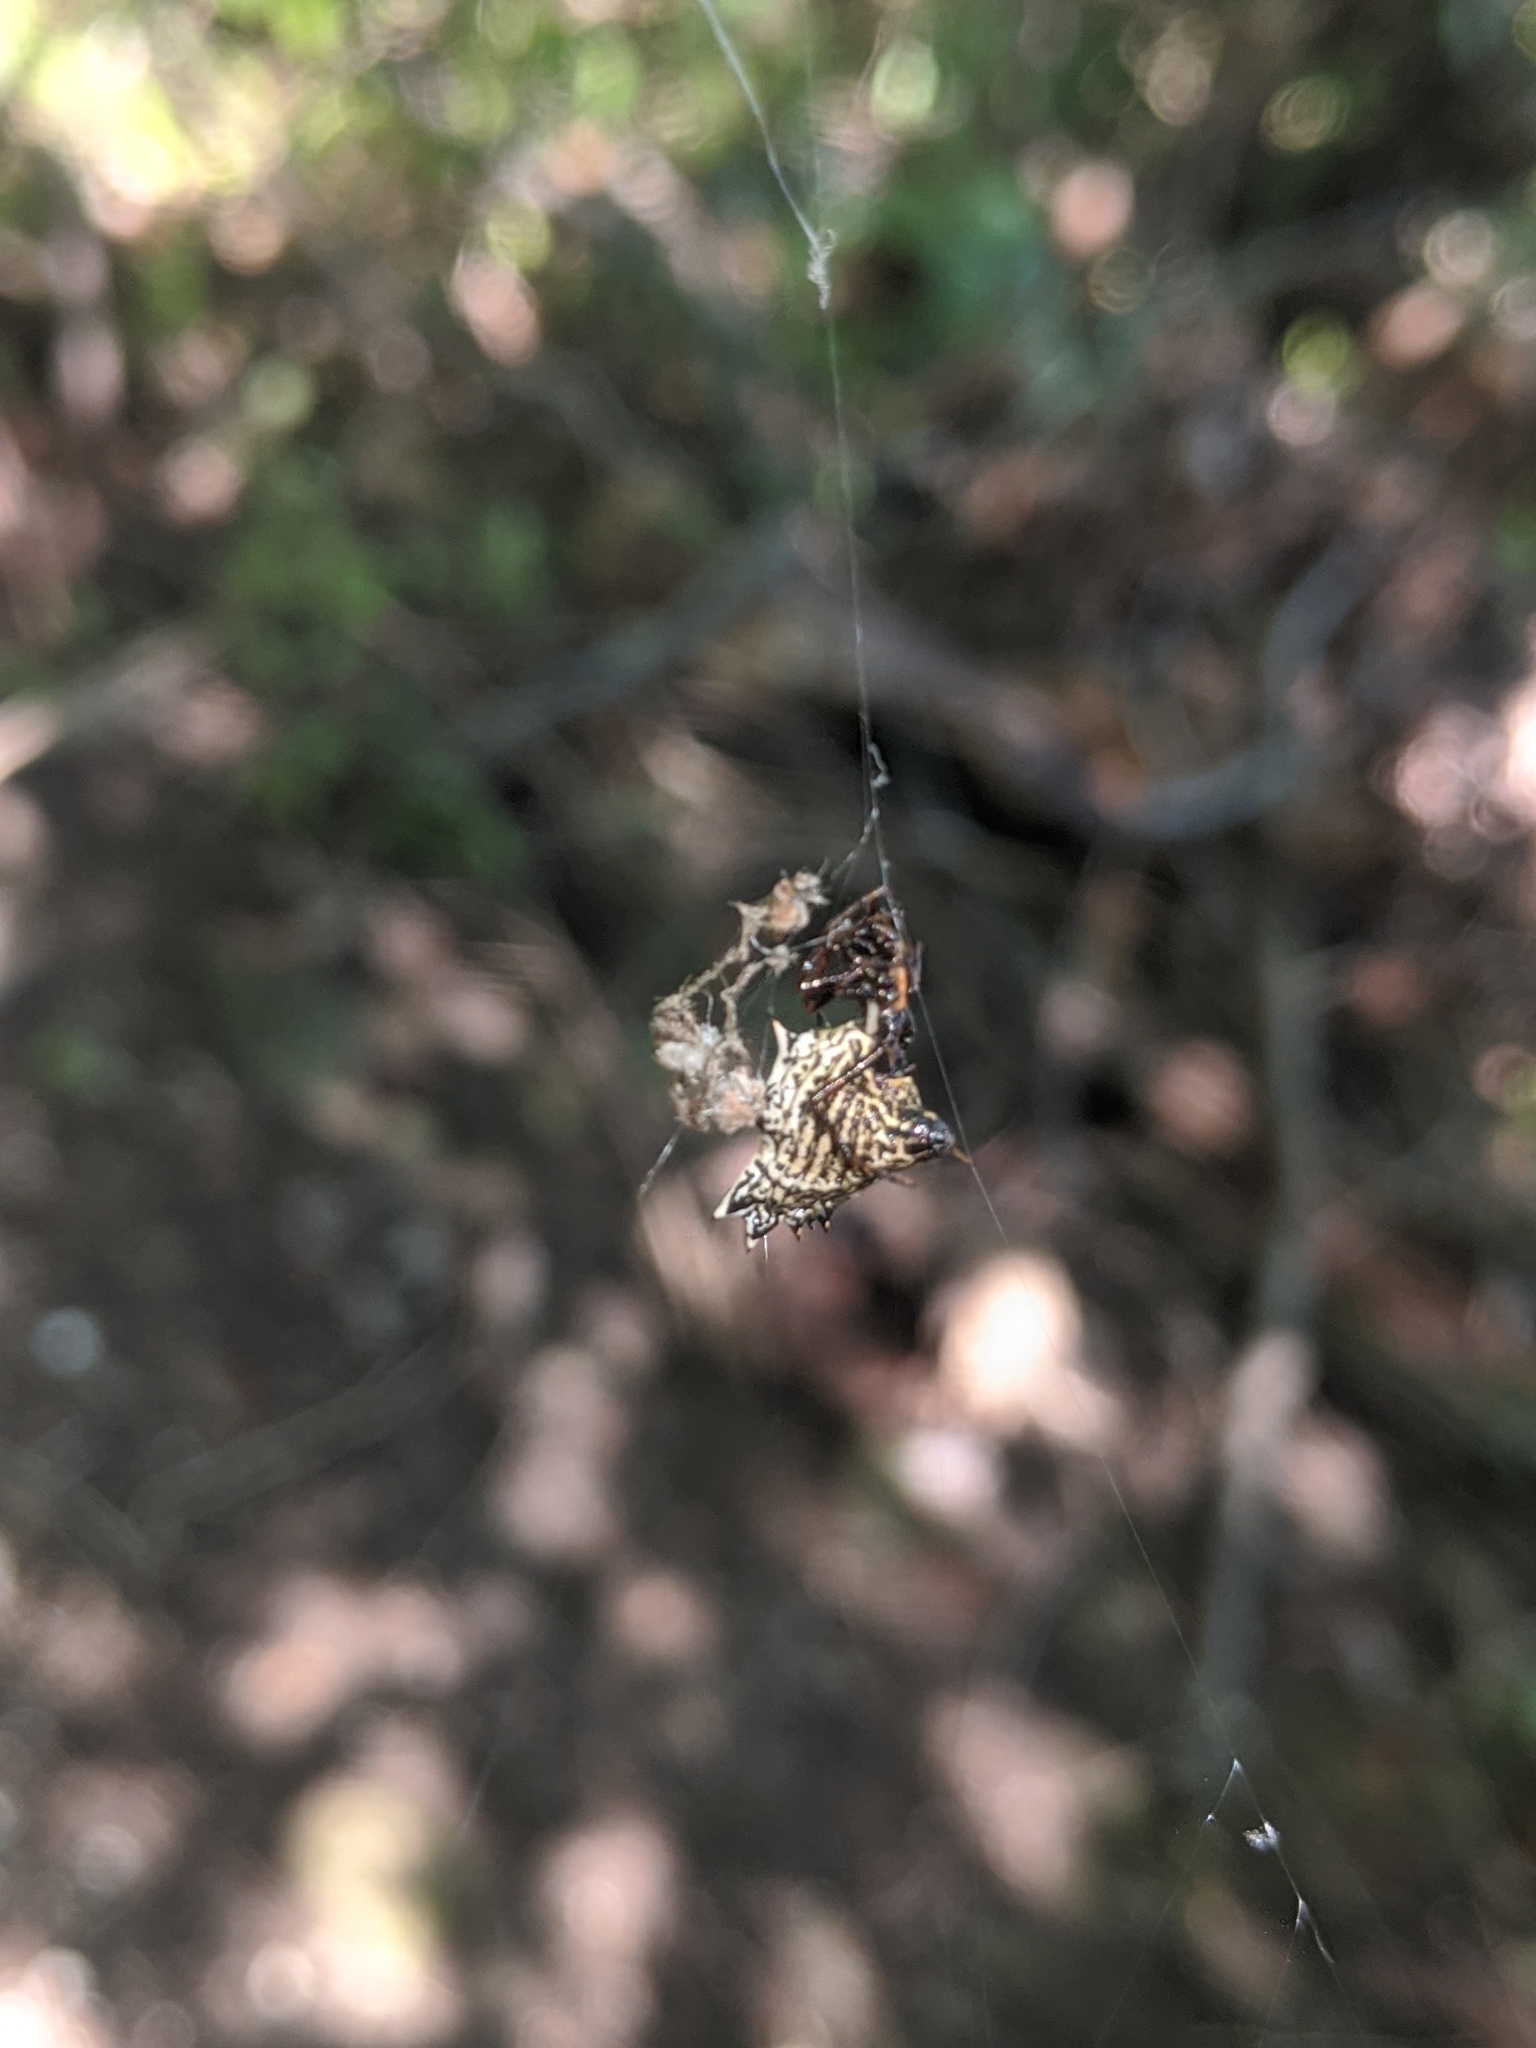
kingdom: Animalia
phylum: Arthropoda
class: Arachnida
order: Araneae
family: Araneidae
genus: Micrathena
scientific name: Micrathena gracilis
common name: Orb weavers
